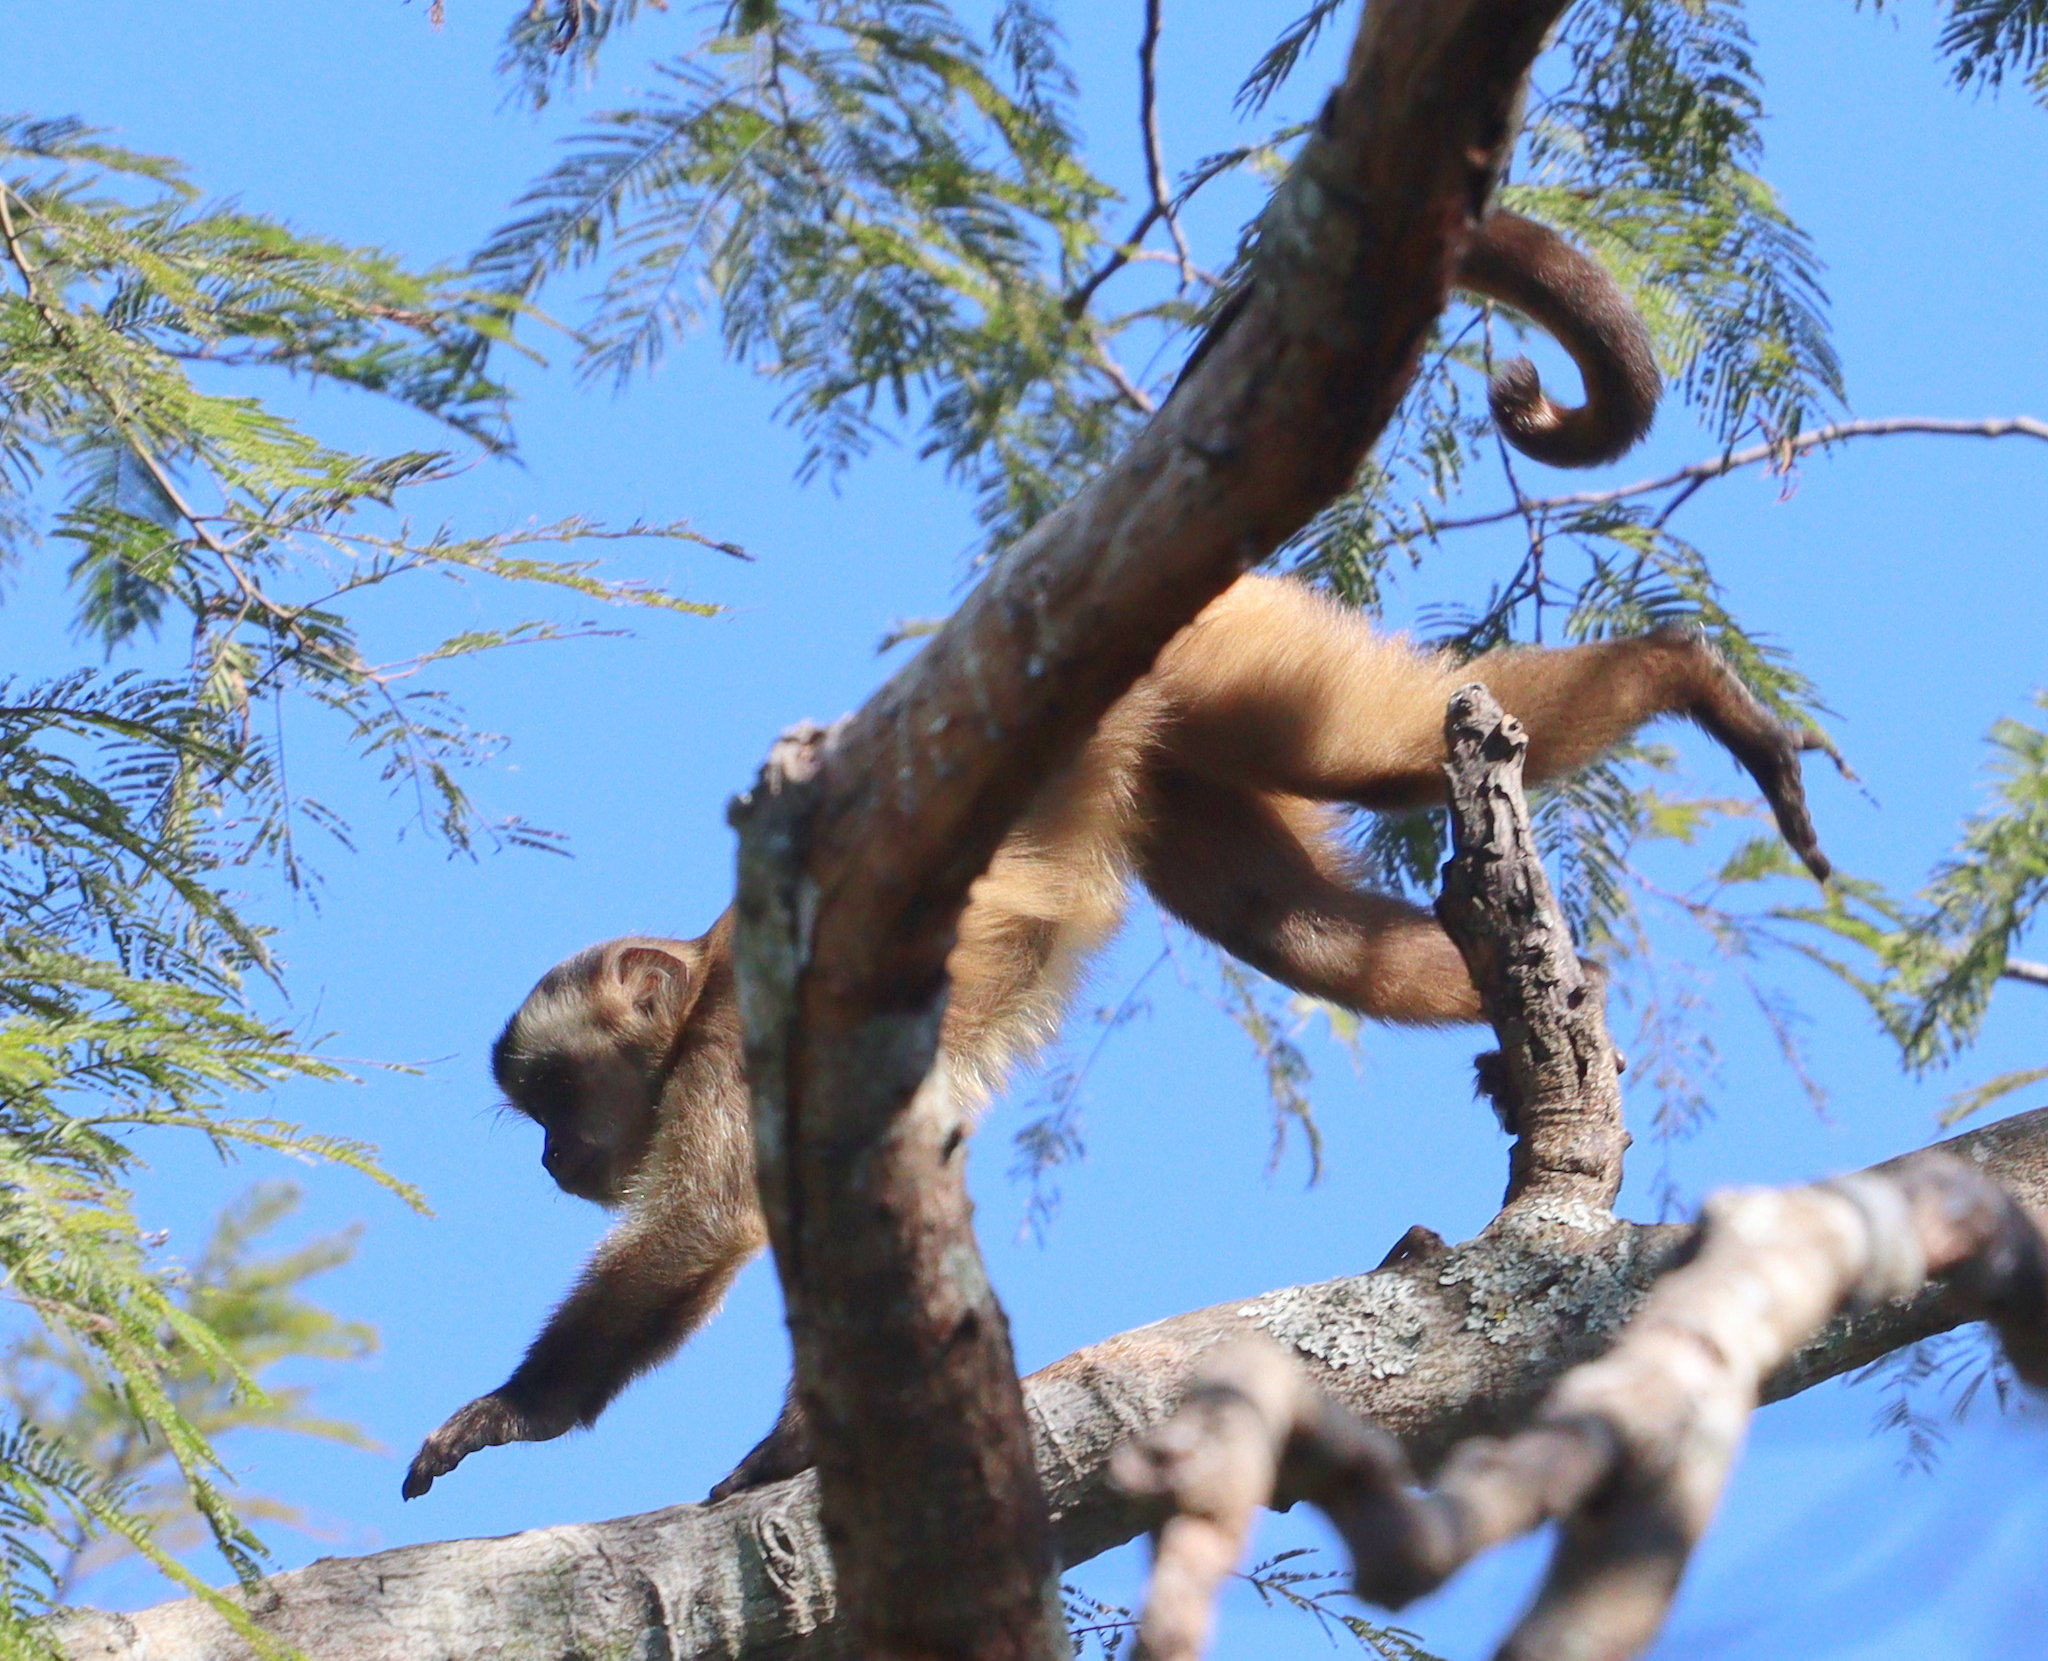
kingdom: Animalia
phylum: Chordata
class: Mammalia
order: Primates
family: Cebidae
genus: Sapajus
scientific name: Sapajus cay
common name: Hooded capuchin
